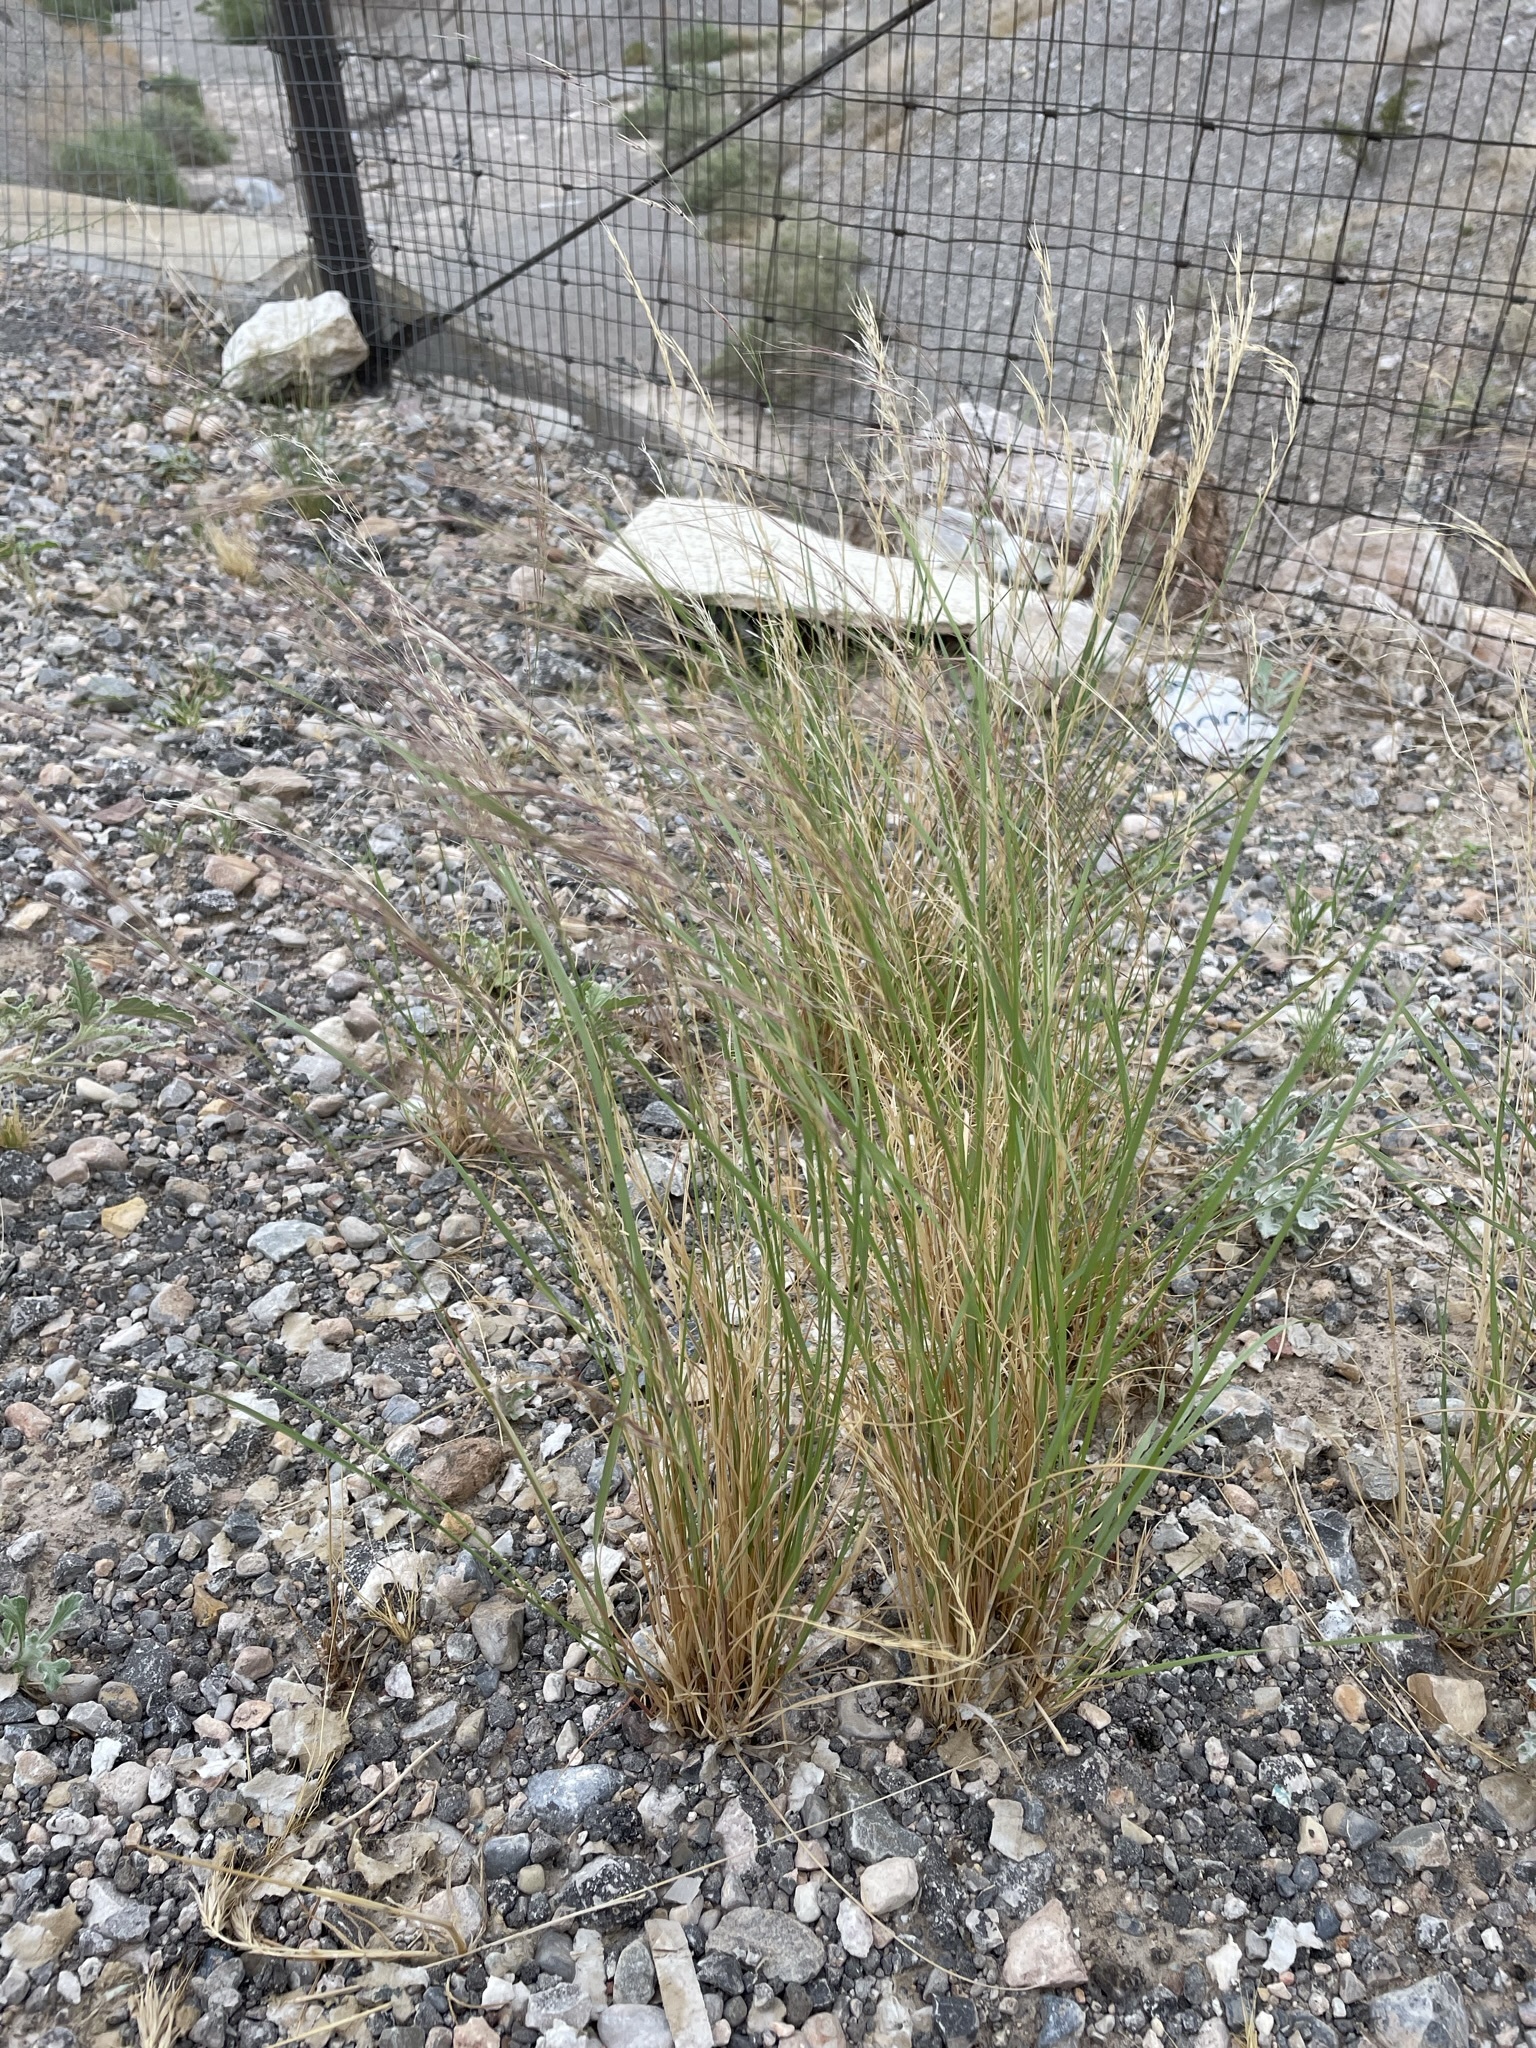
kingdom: Plantae
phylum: Tracheophyta
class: Liliopsida
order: Poales
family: Poaceae
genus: Aristida
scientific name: Aristida purpurea
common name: Purple threeawn
